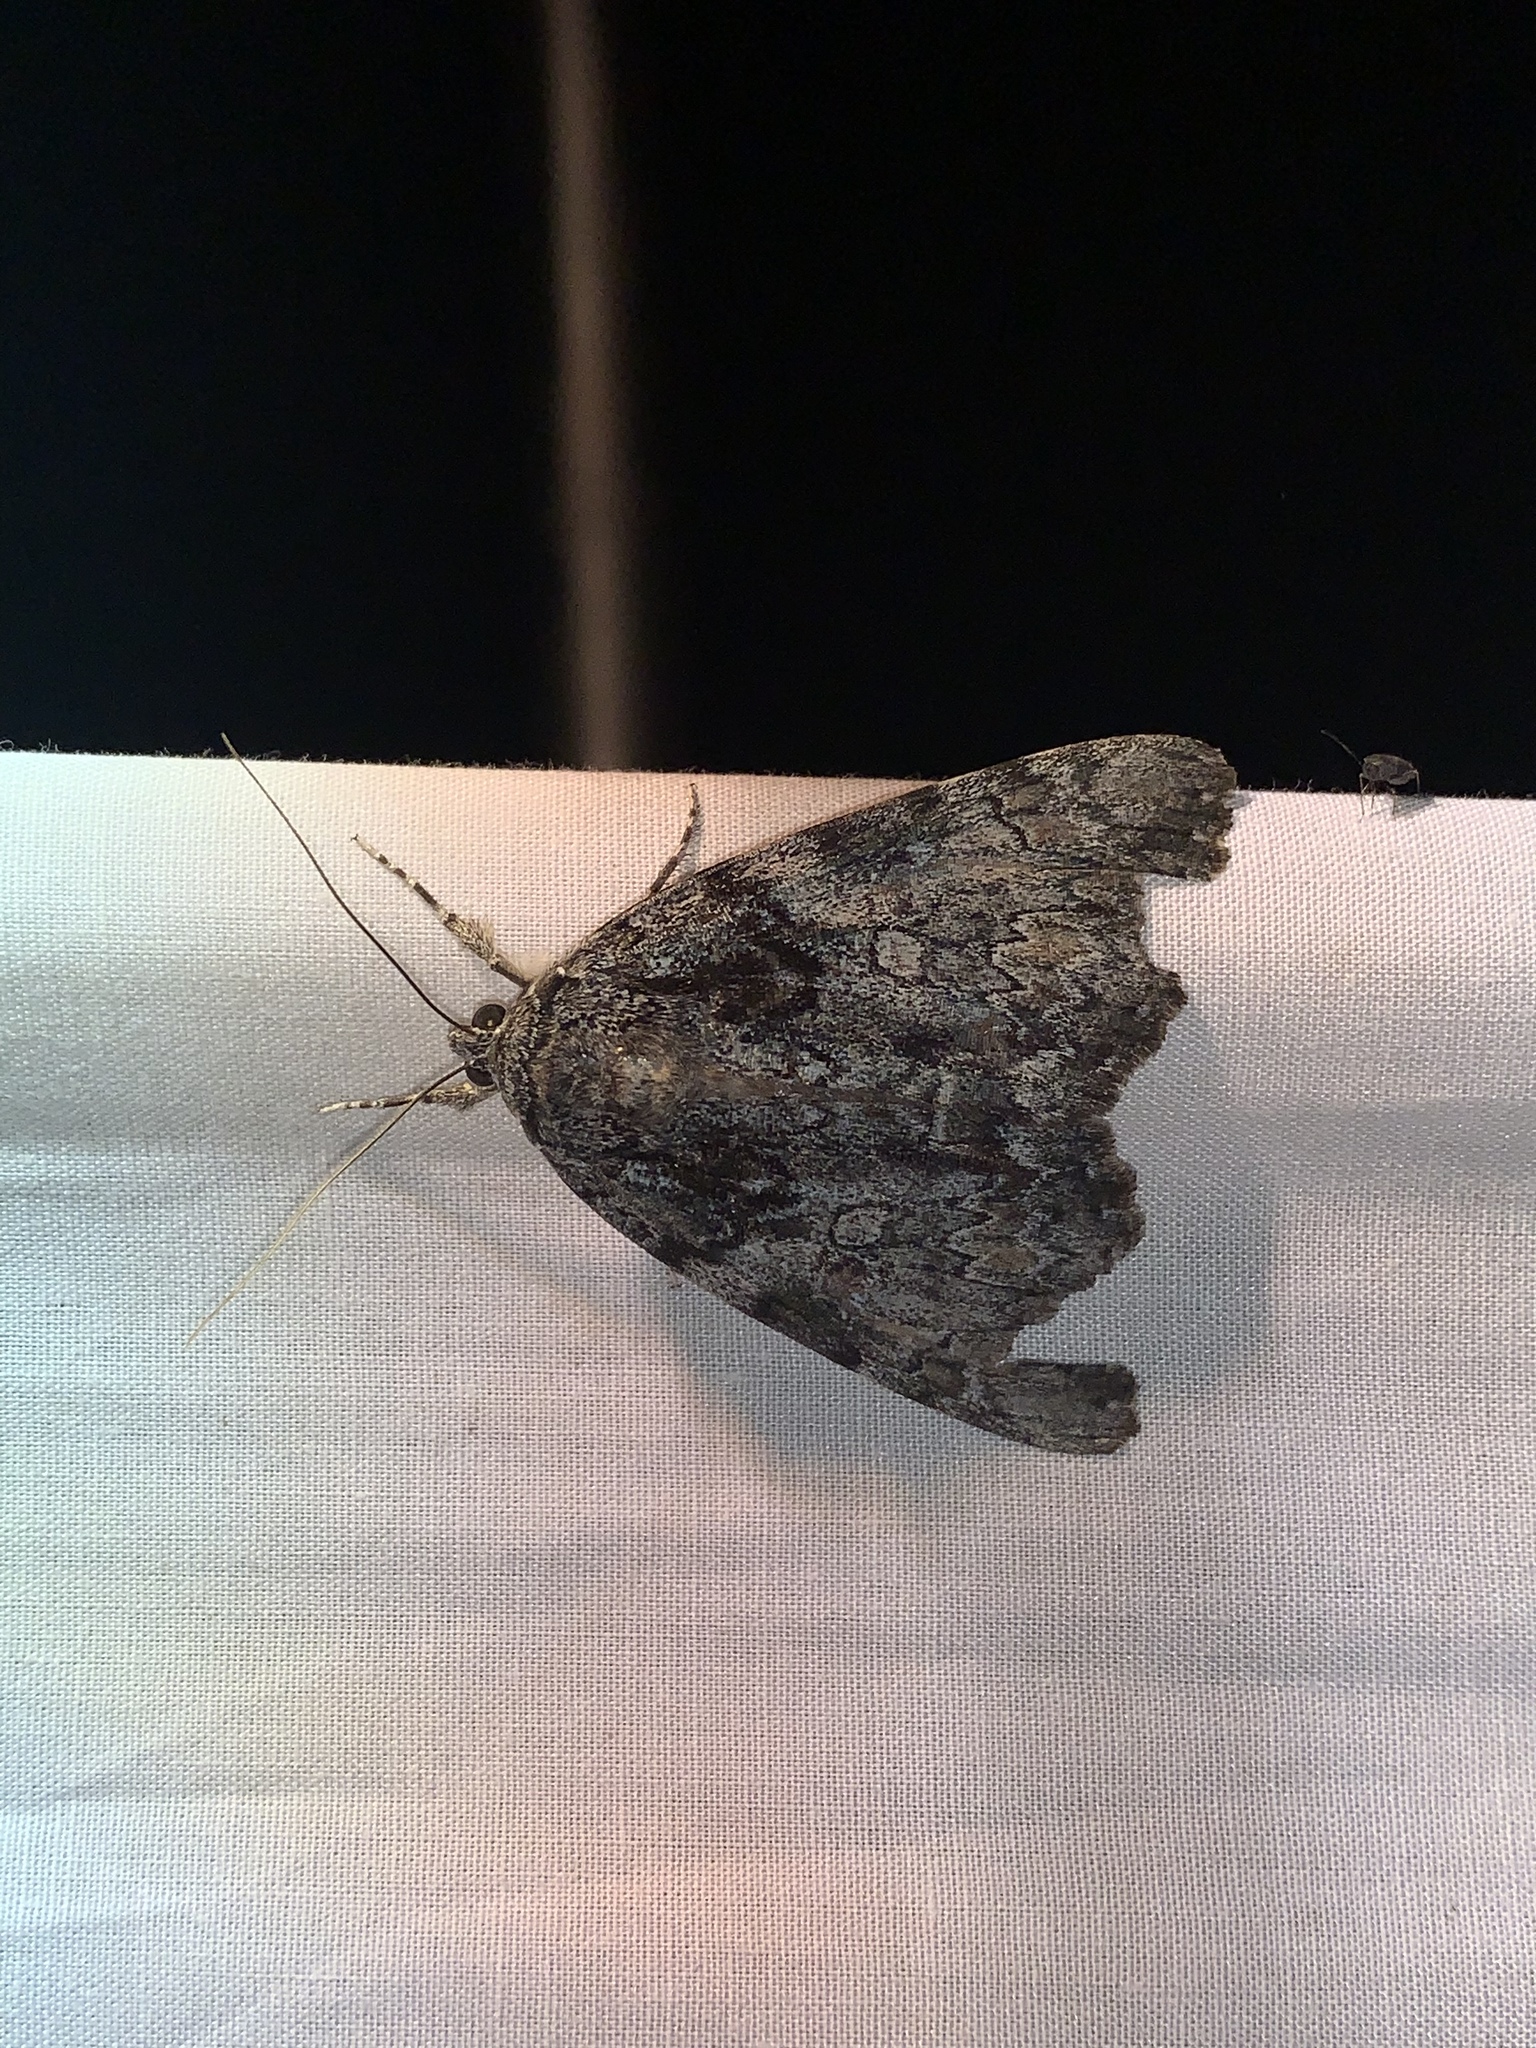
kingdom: Animalia
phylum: Arthropoda
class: Insecta
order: Lepidoptera
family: Erebidae
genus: Catocala
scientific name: Catocala palaeogama
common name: Oldwife underwing
